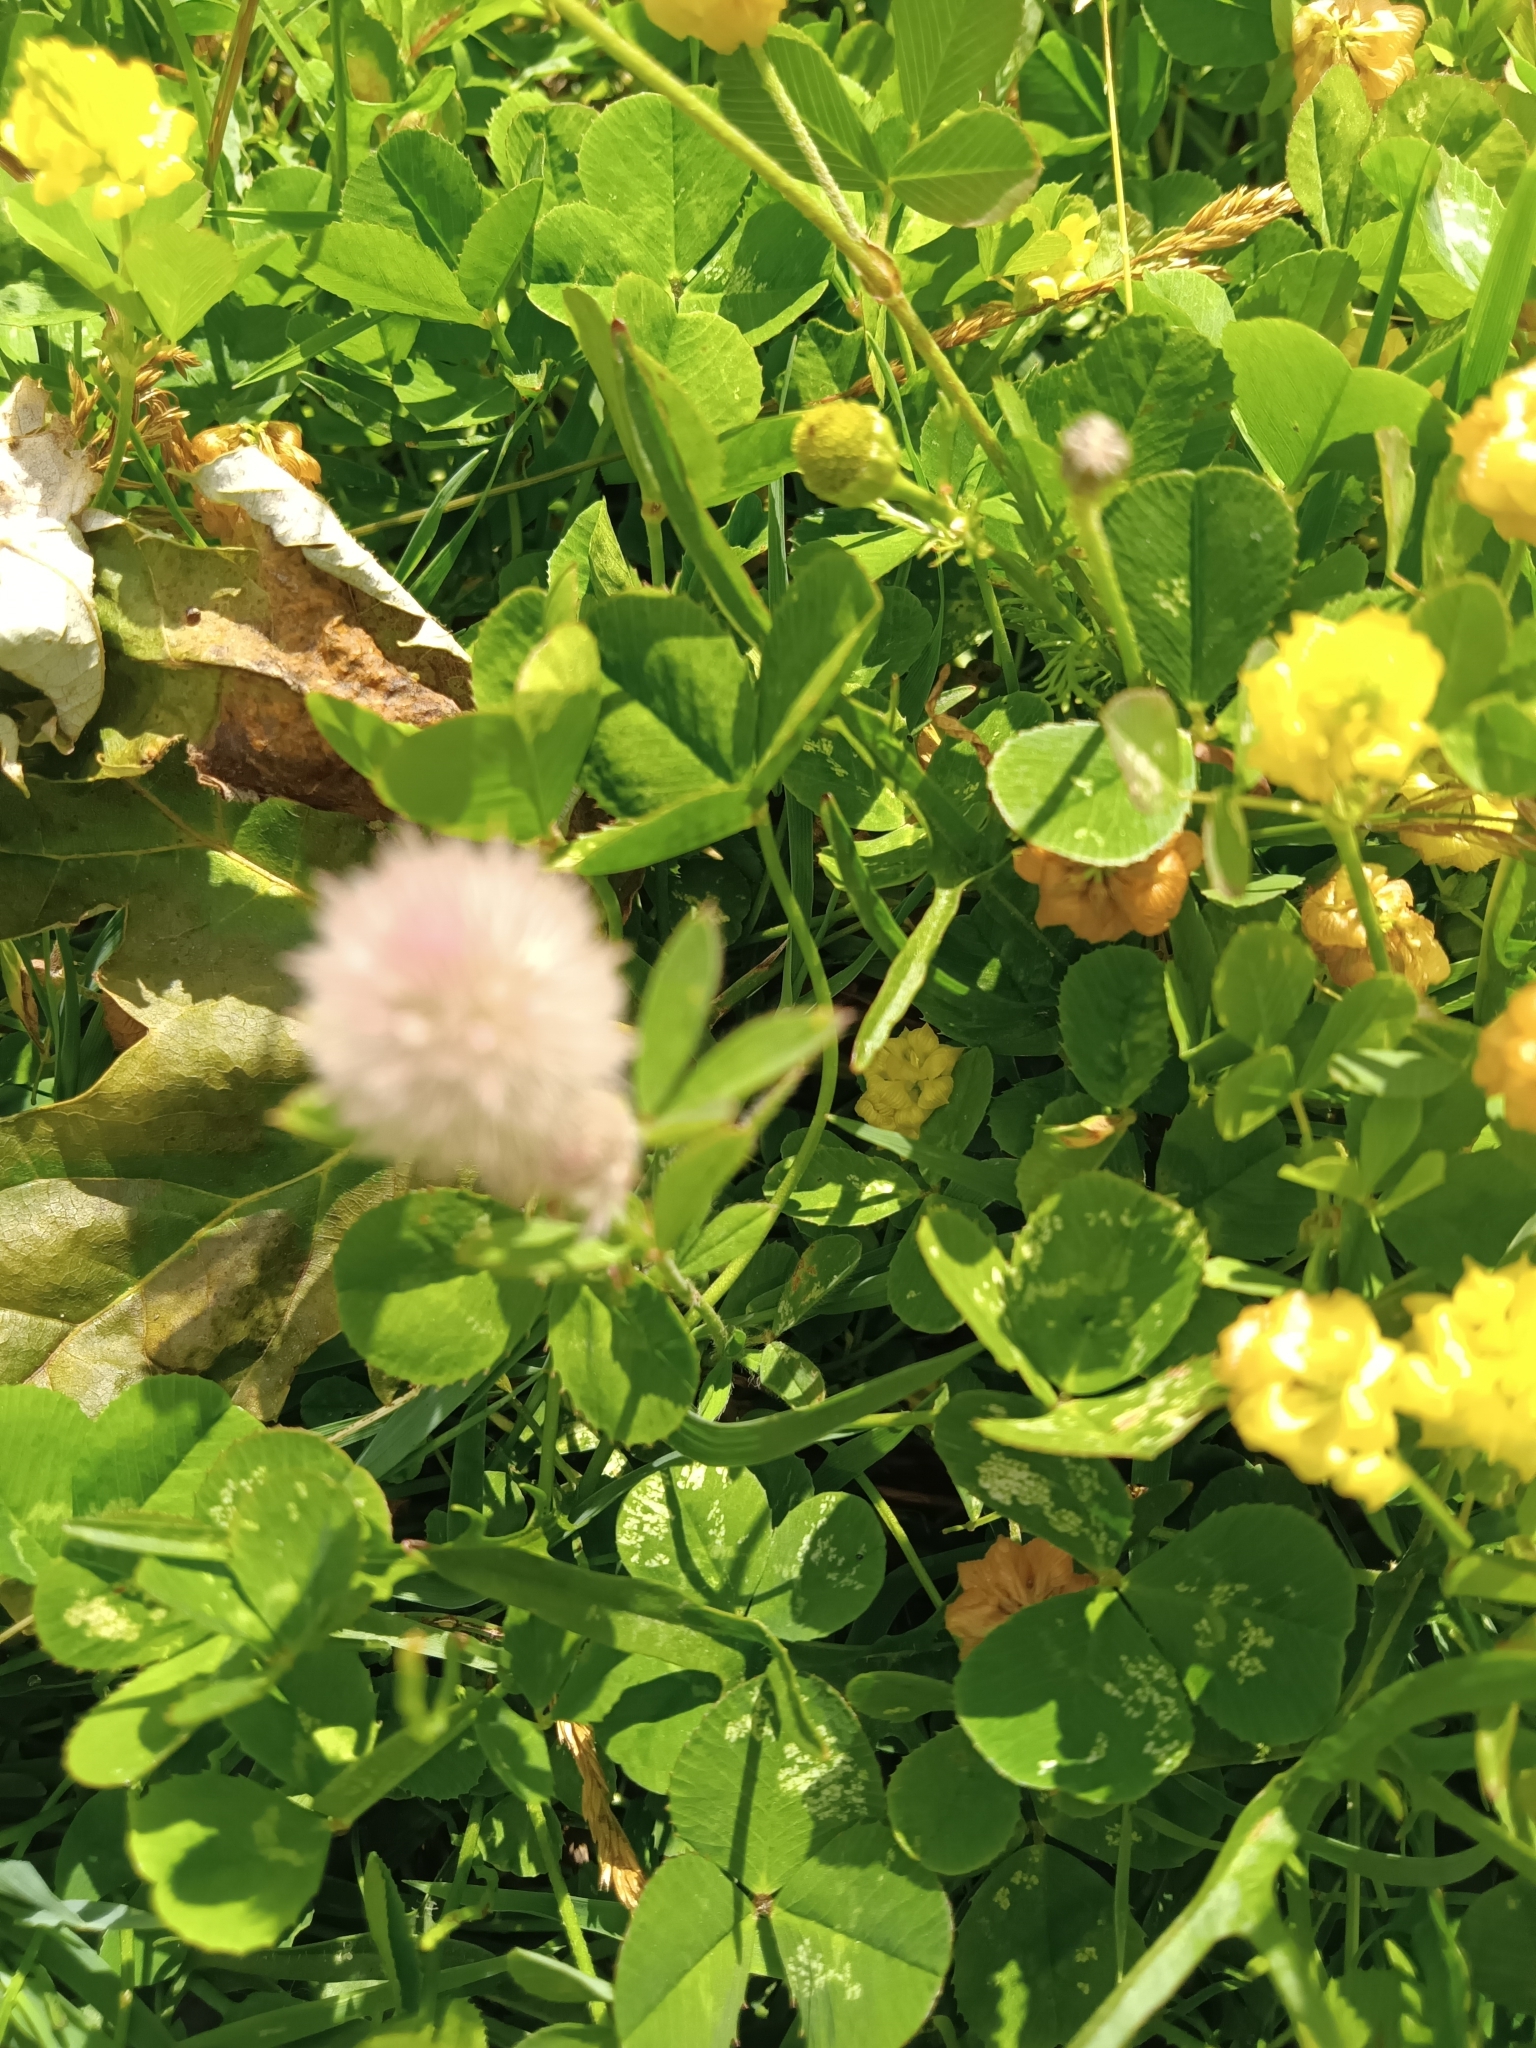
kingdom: Plantae
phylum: Tracheophyta
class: Magnoliopsida
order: Fabales
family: Fabaceae
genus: Trifolium
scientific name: Trifolium arvense
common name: Hare's-foot clover
